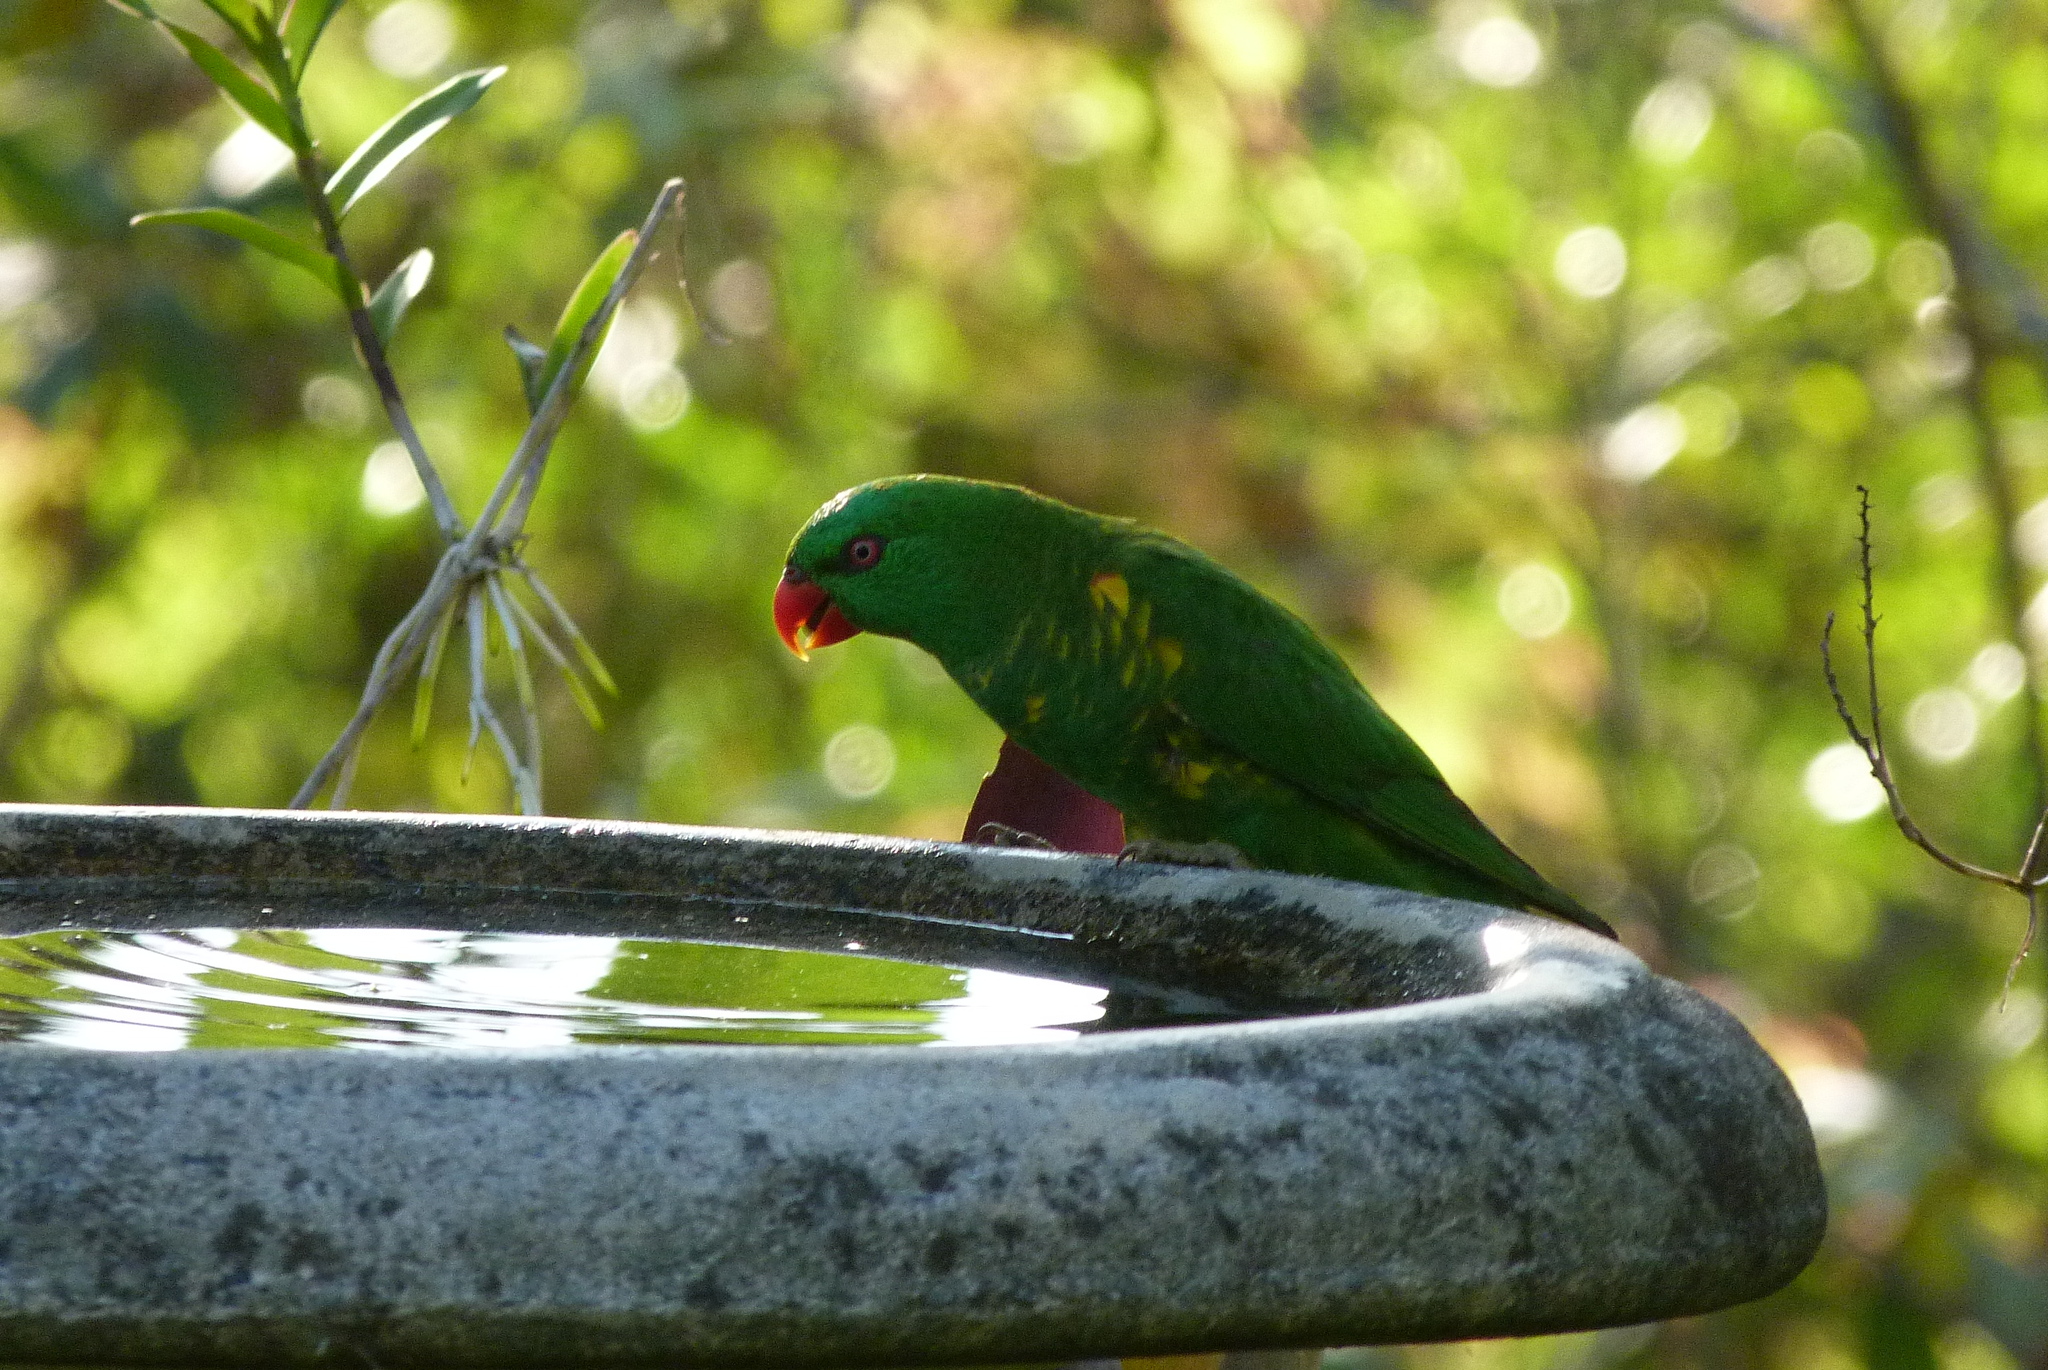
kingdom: Animalia
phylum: Chordata
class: Aves
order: Psittaciformes
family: Psittacidae
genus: Trichoglossus
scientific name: Trichoglossus chlorolepidotus
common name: Scaly-breasted lorikeet
